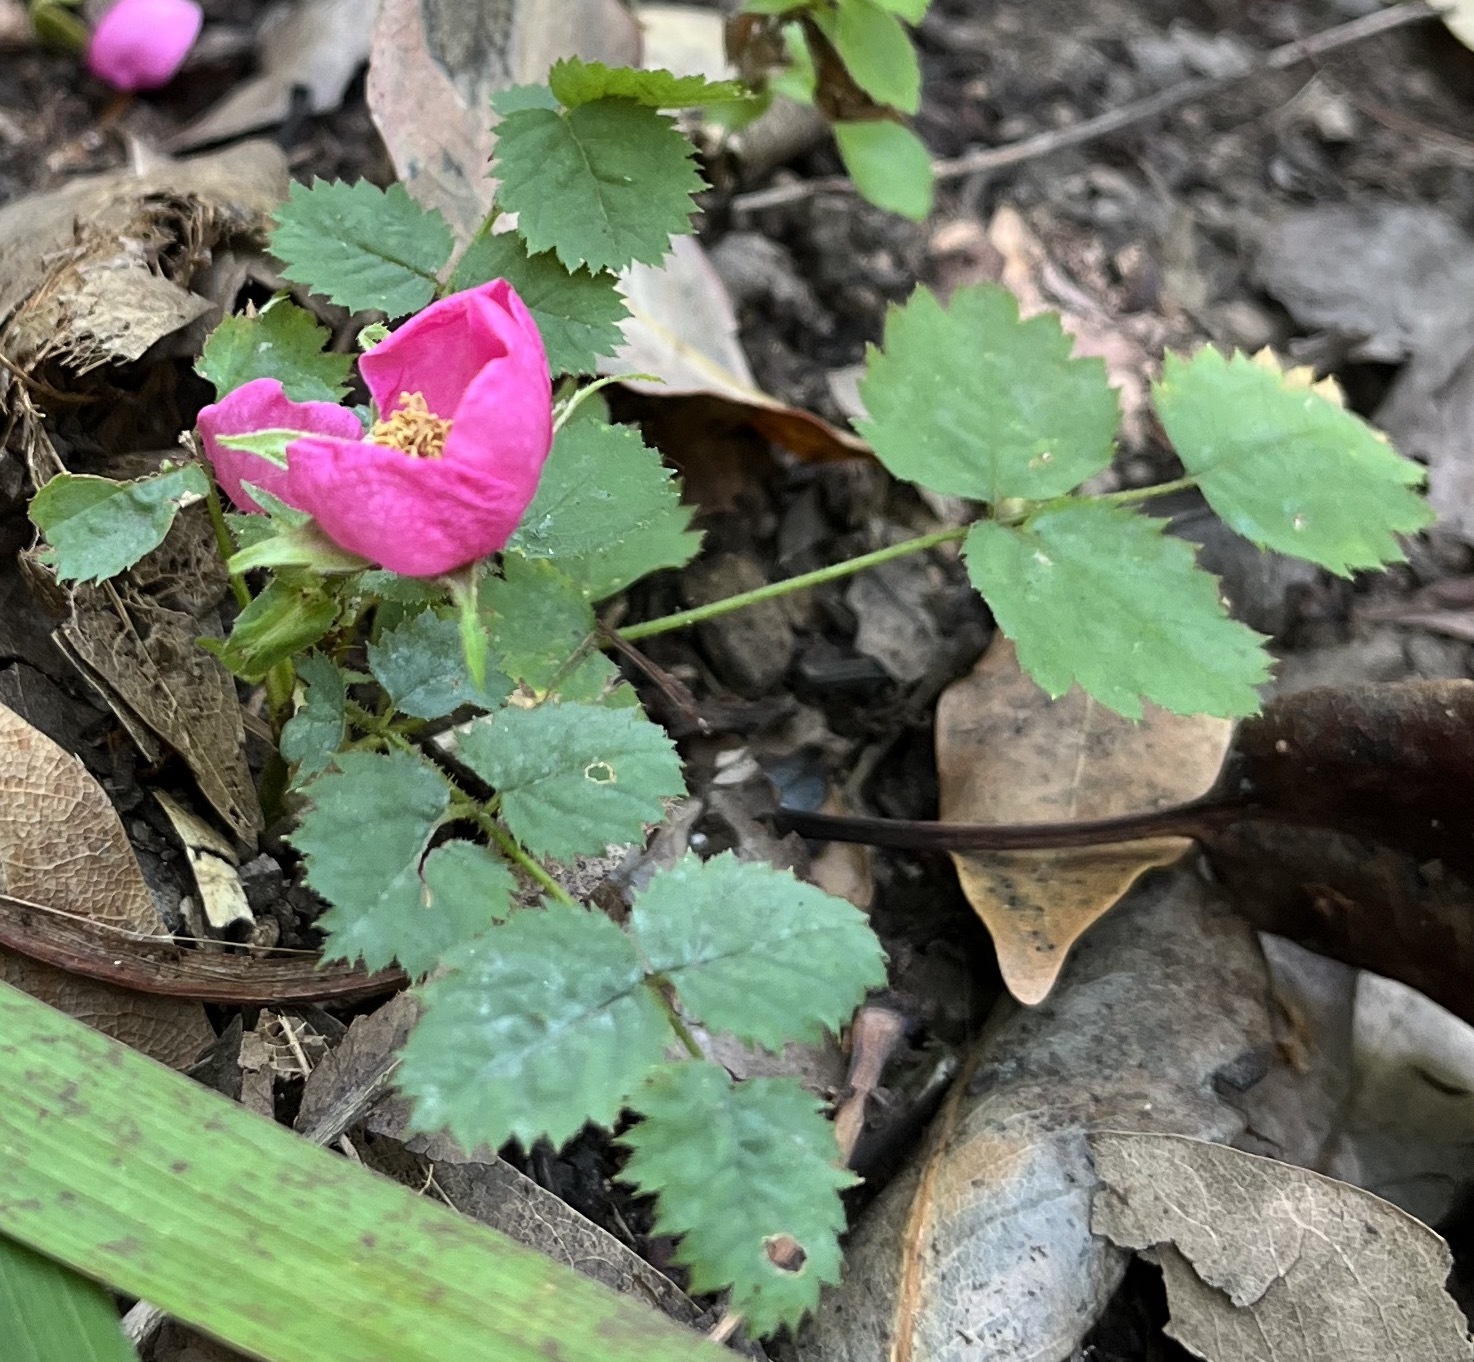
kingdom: Plantae
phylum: Tracheophyta
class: Magnoliopsida
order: Rosales
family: Rosaceae
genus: Rosa
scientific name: Rosa spithamea
